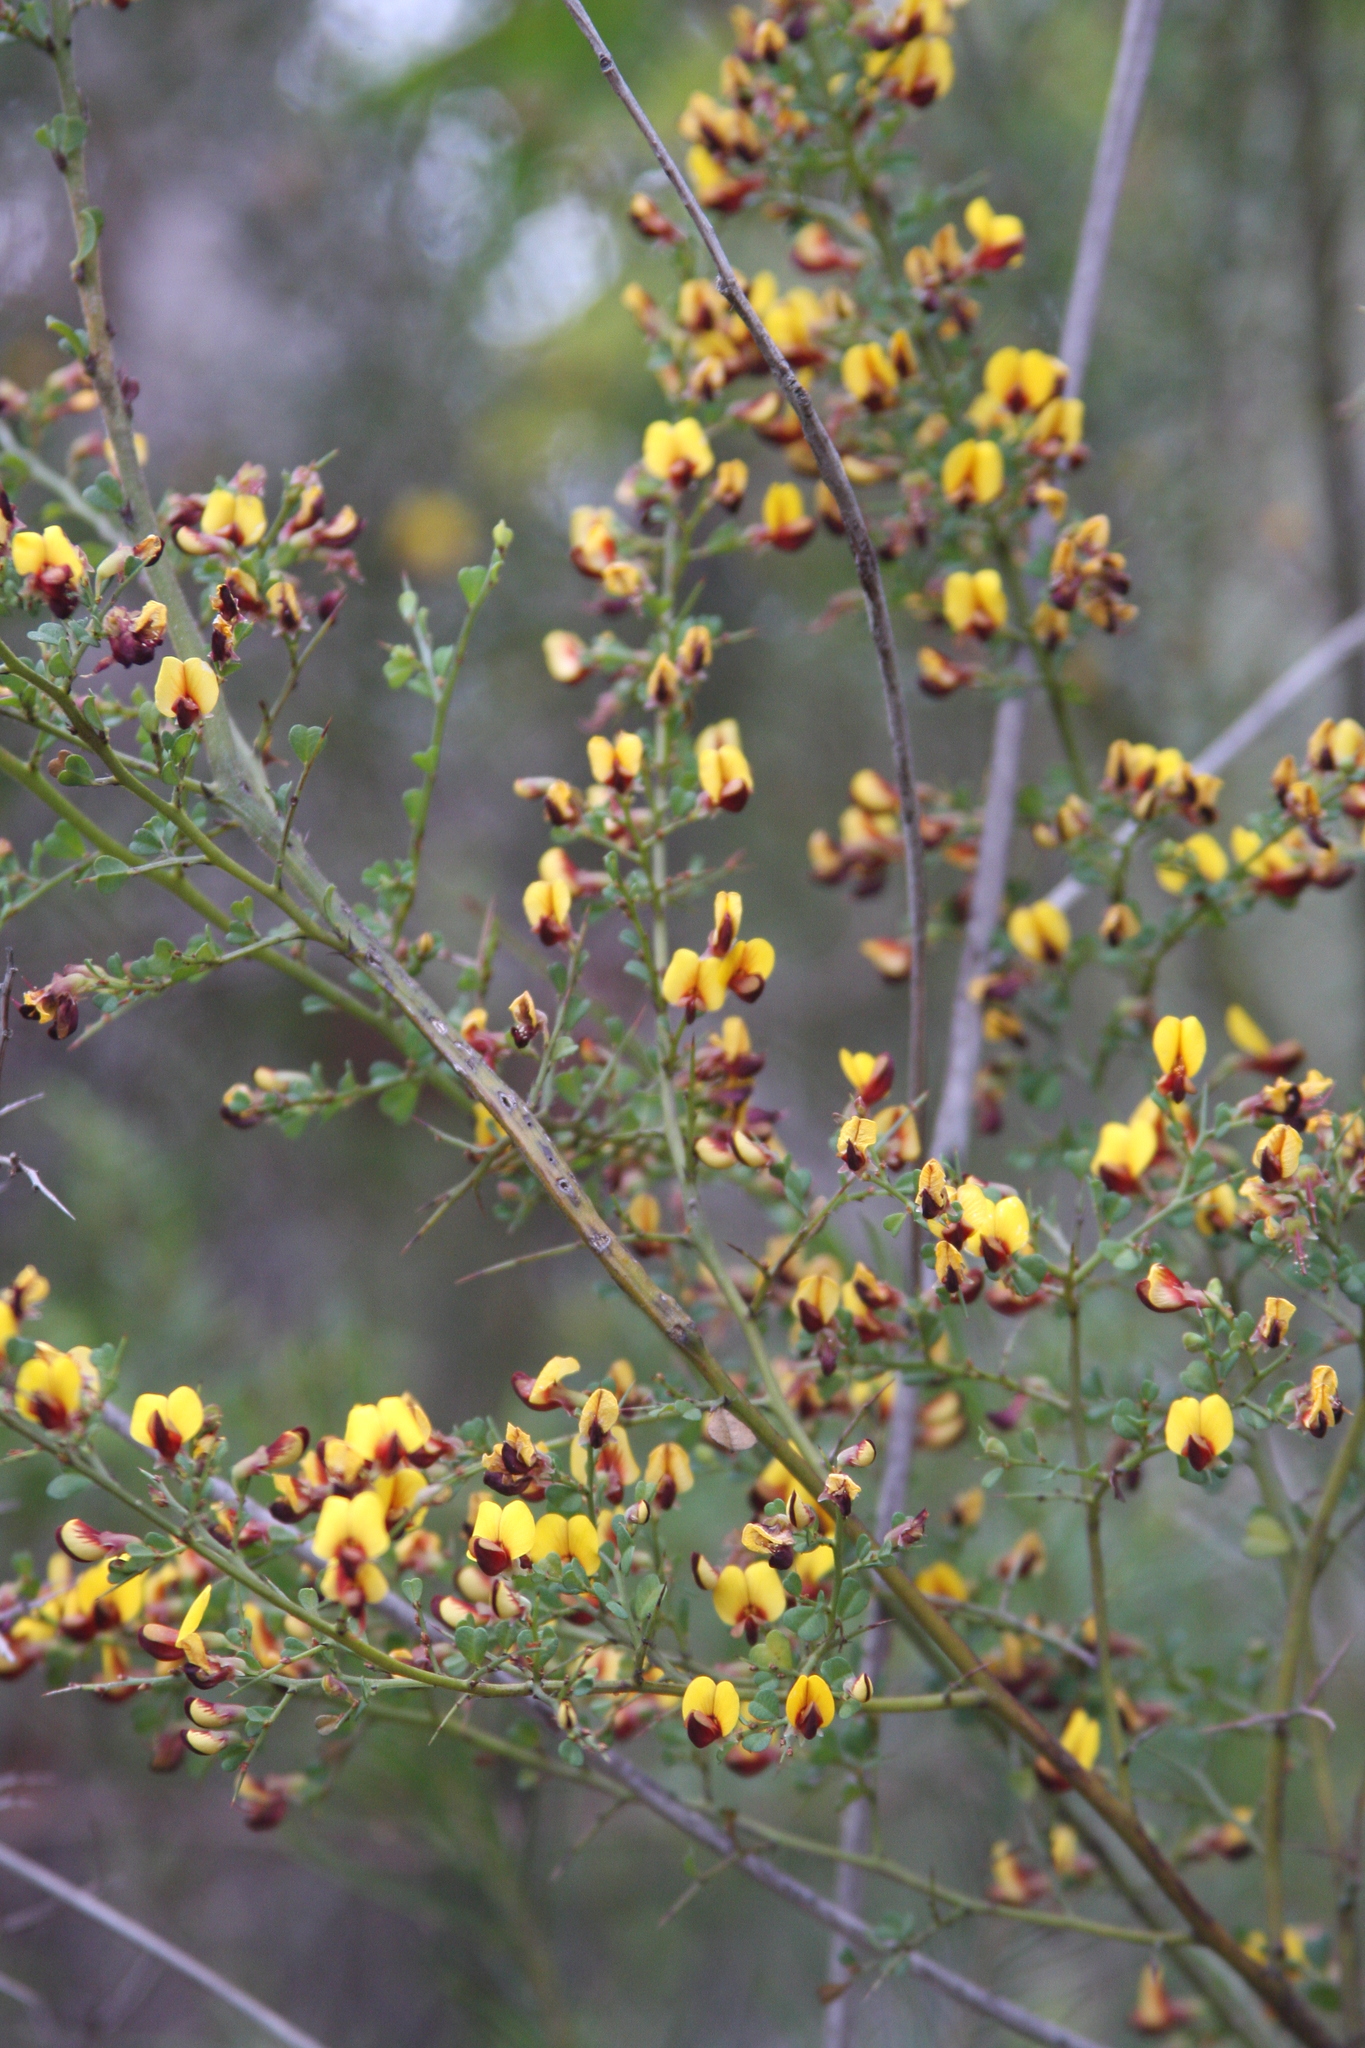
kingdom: Plantae
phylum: Tracheophyta
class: Magnoliopsida
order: Fabales
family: Fabaceae
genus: Bossiaea
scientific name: Bossiaea obcordata
